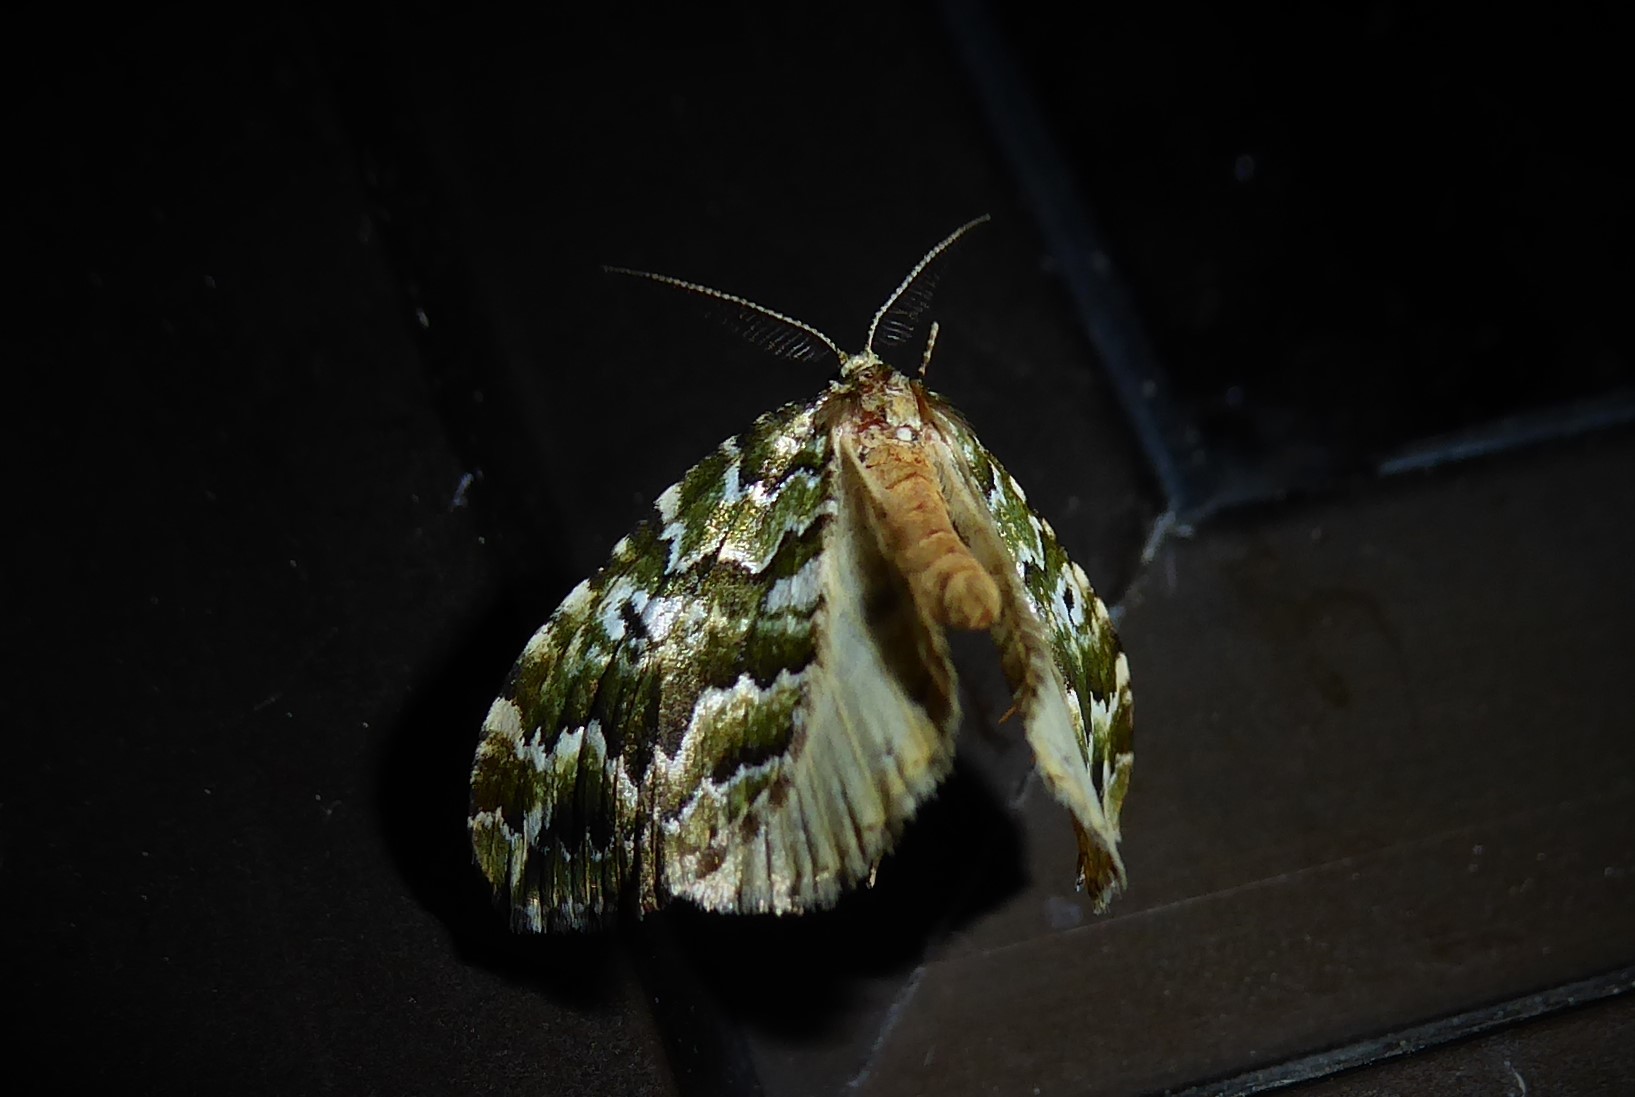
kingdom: Animalia
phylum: Arthropoda
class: Insecta
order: Lepidoptera
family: Geometridae
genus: Asaphodes
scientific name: Asaphodes beata
